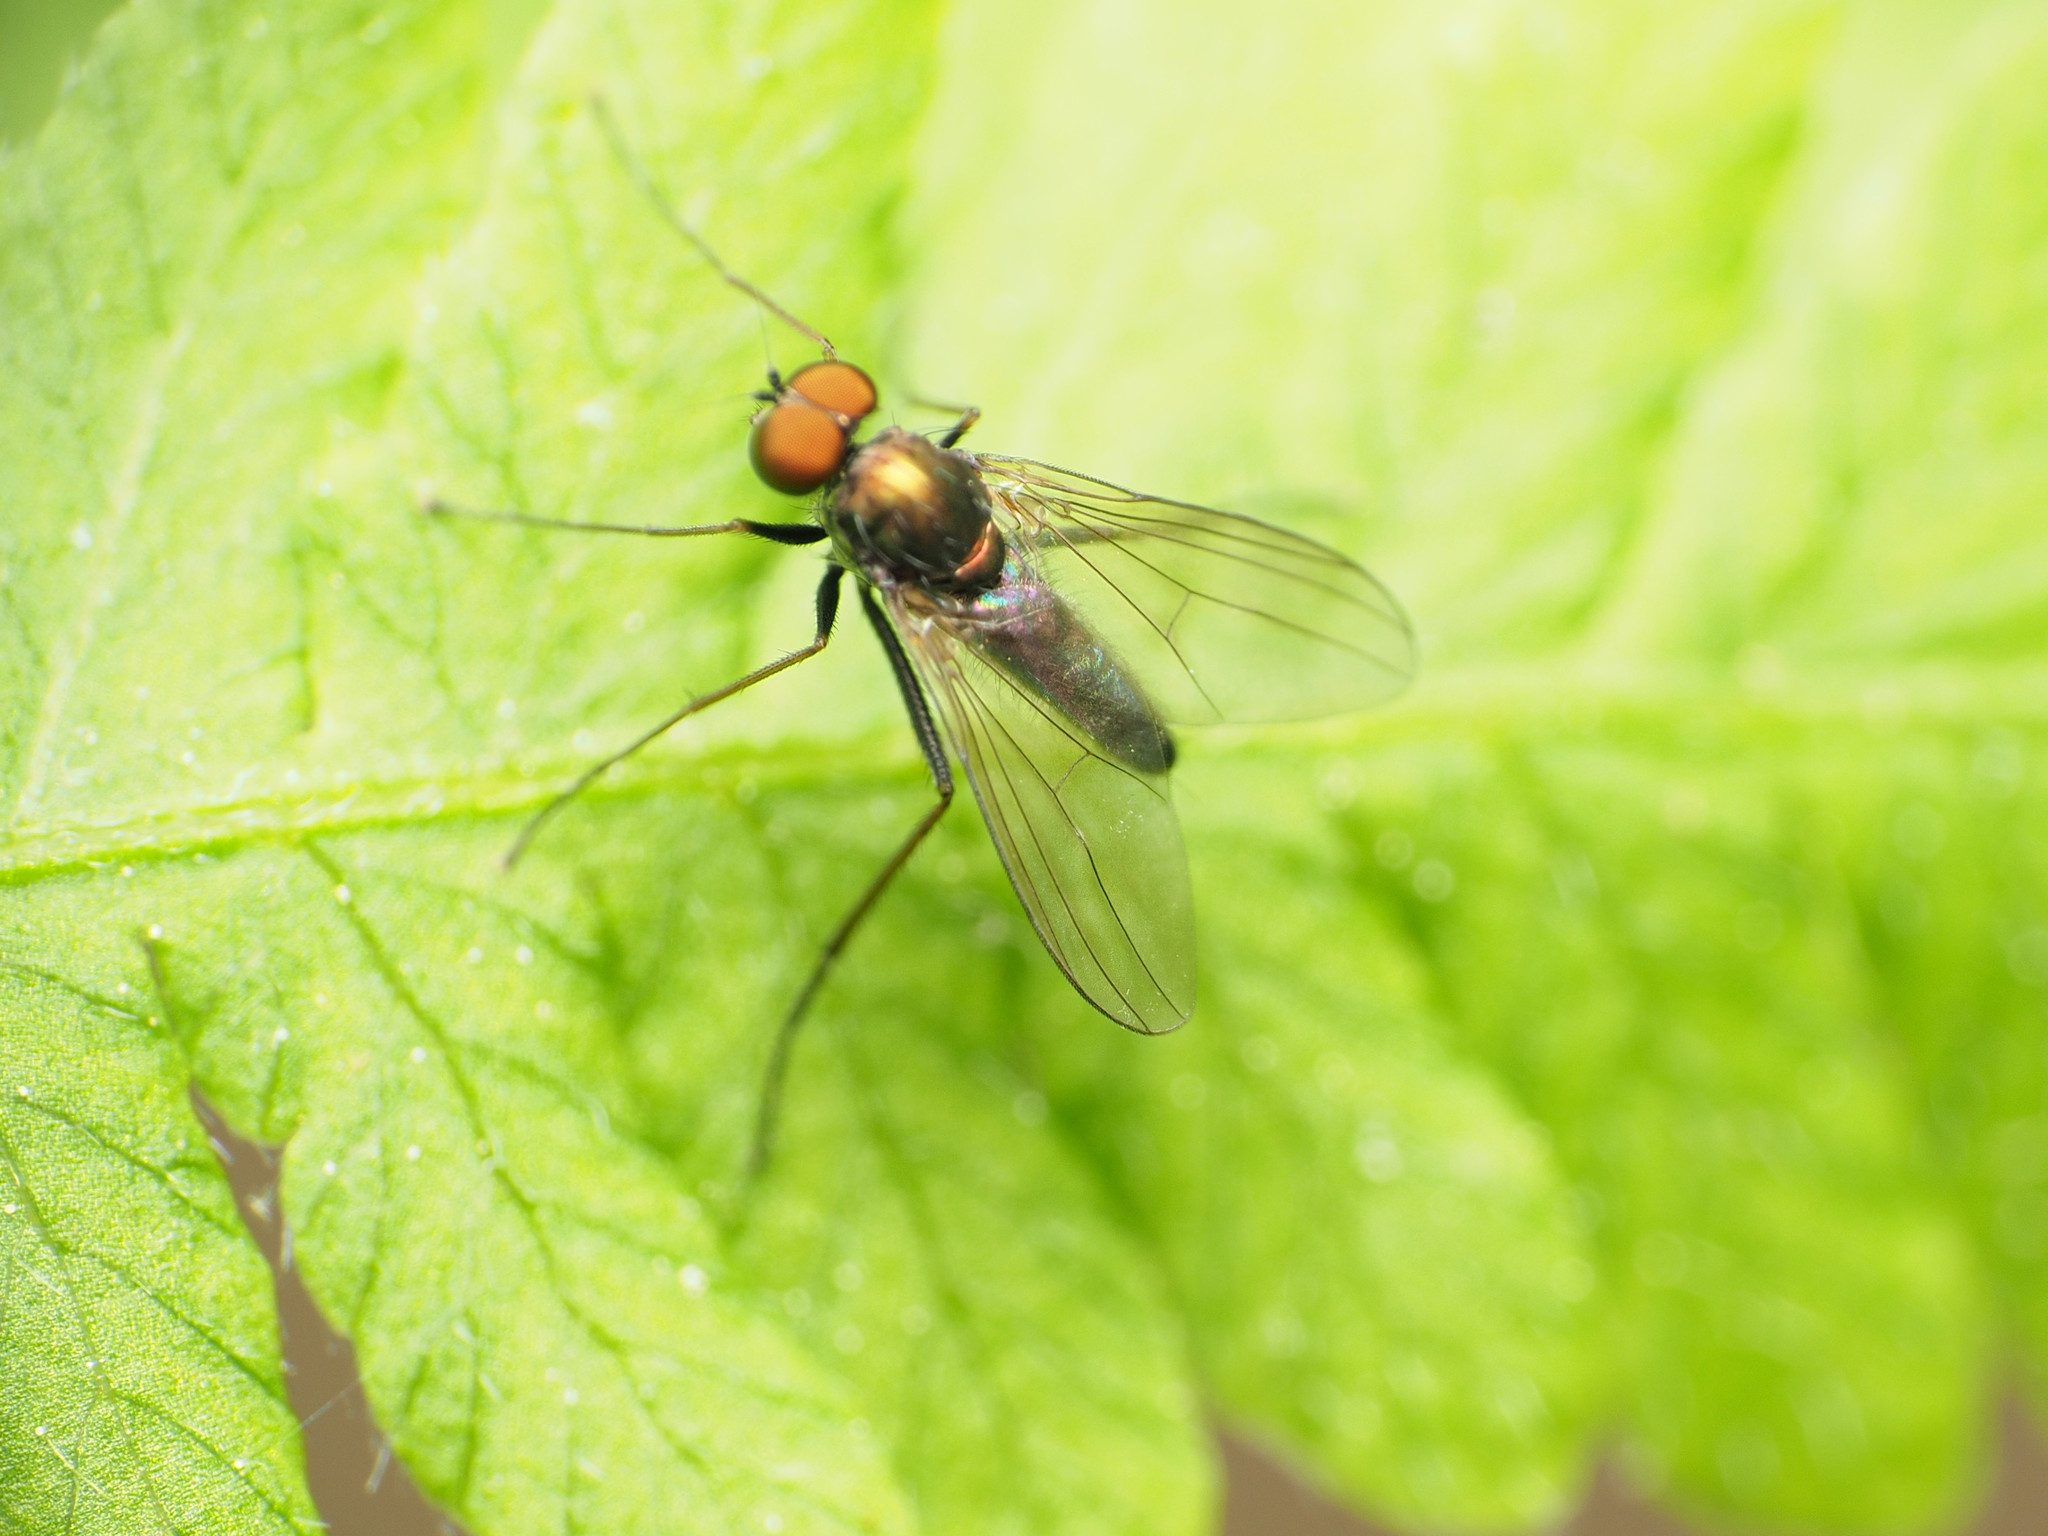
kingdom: Animalia
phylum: Arthropoda
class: Insecta
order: Diptera
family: Dolichopodidae
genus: Chrysotus
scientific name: Chrysotus spectabilis
